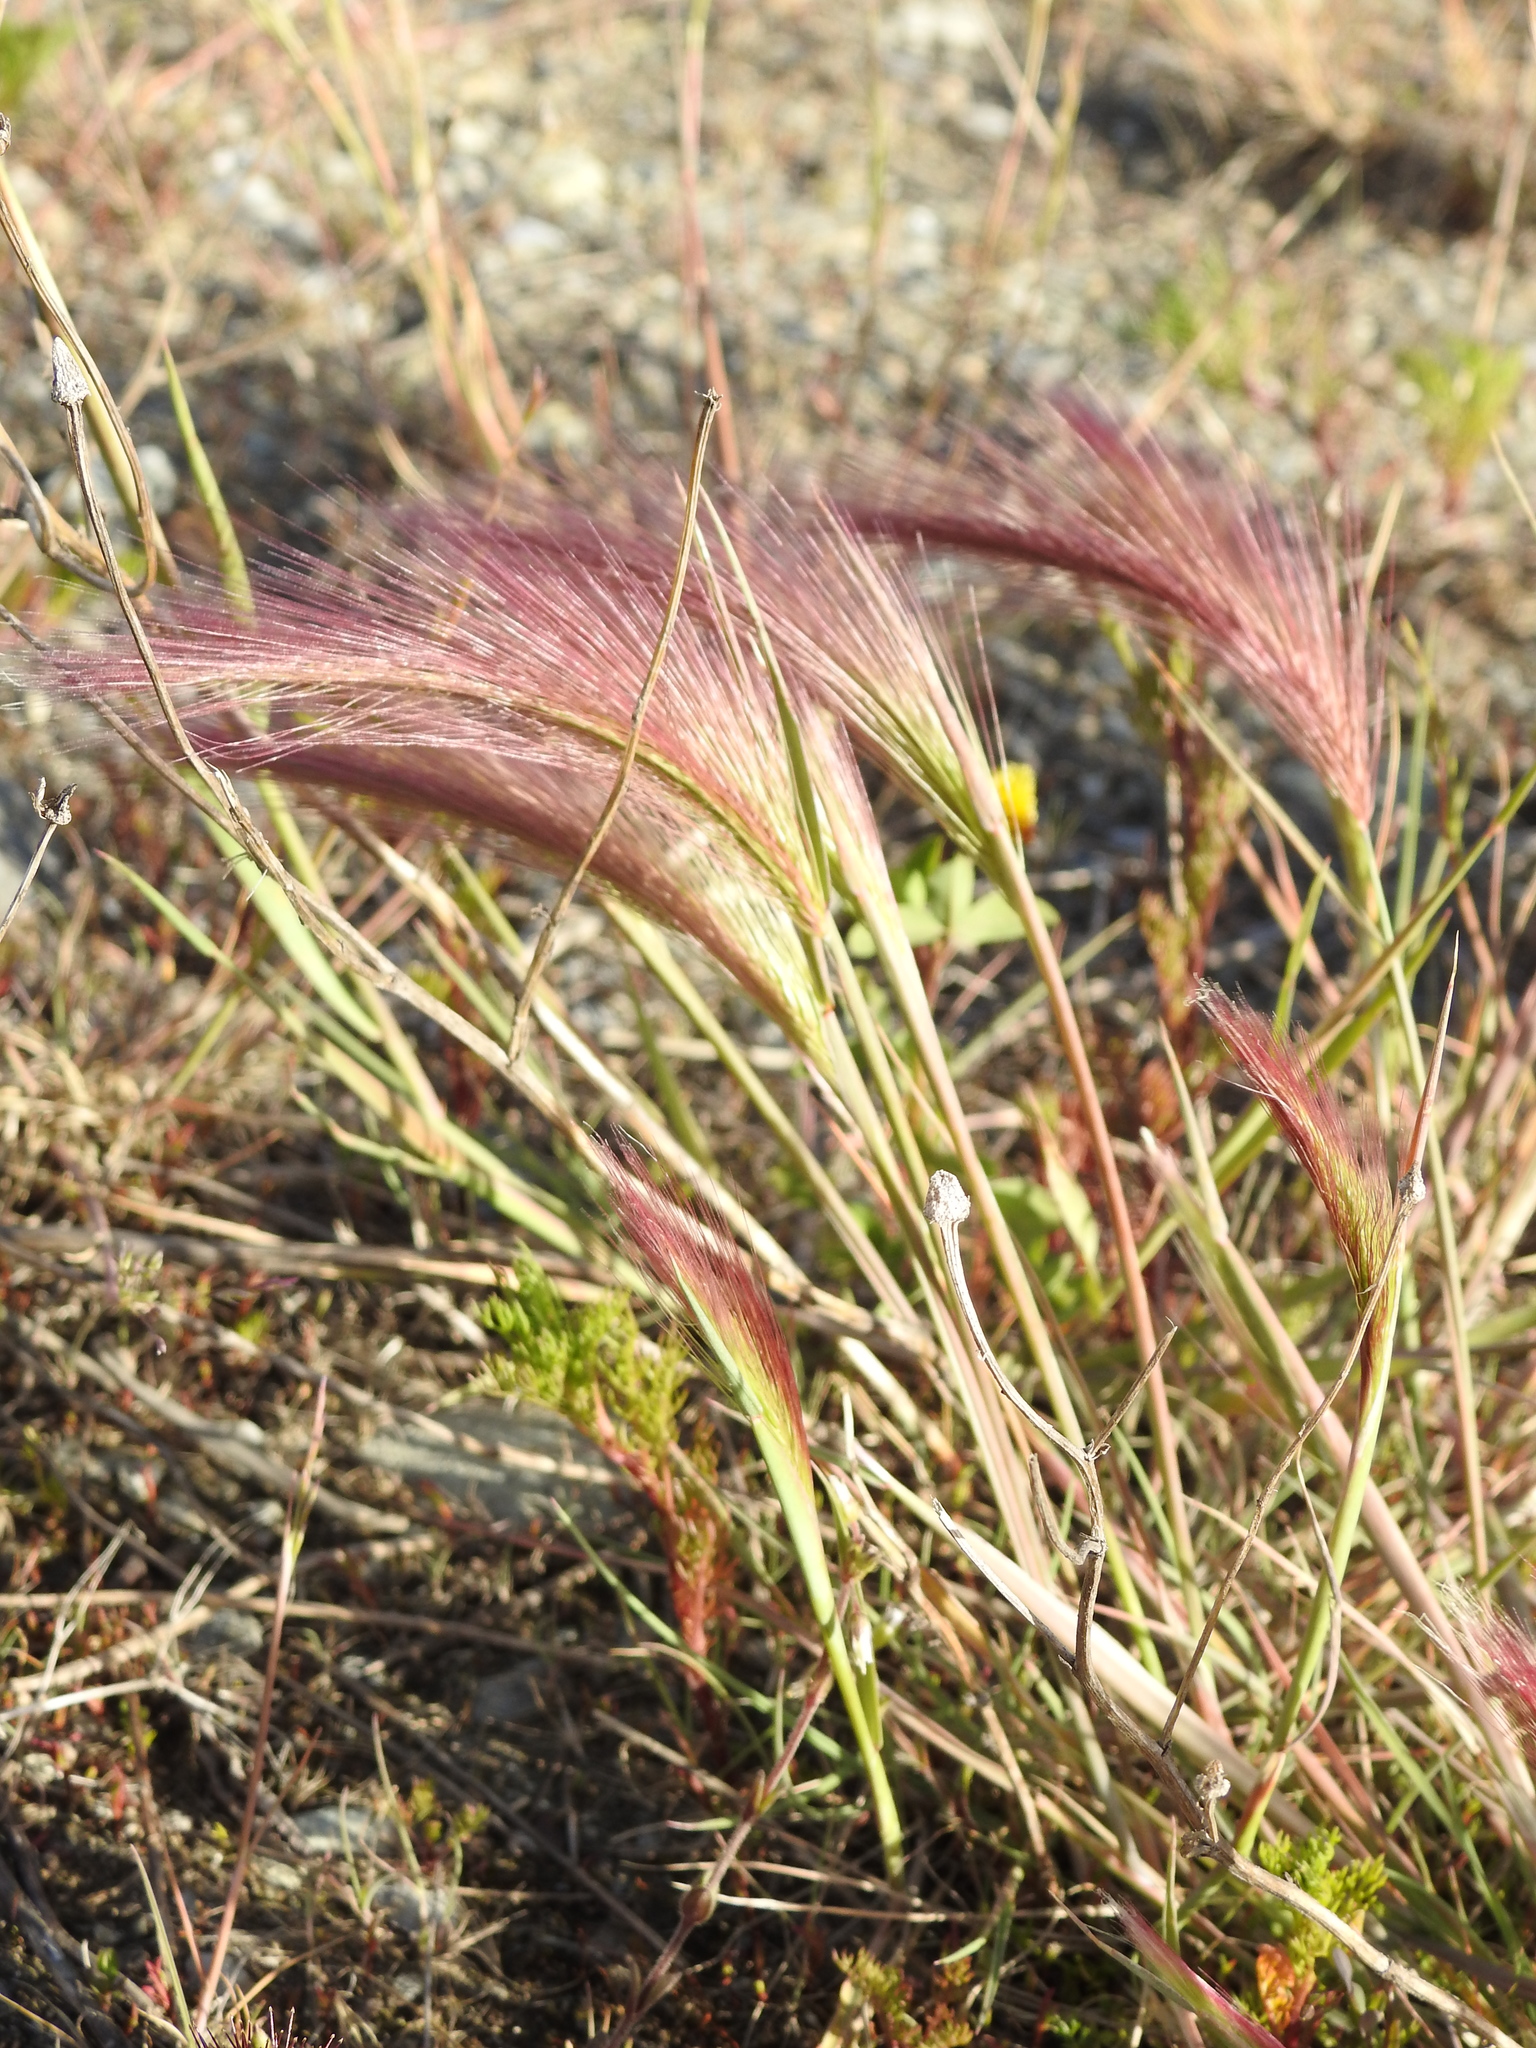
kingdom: Plantae
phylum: Tracheophyta
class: Liliopsida
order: Poales
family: Poaceae
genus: Hordeum
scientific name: Hordeum jubatum
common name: Foxtail barley
